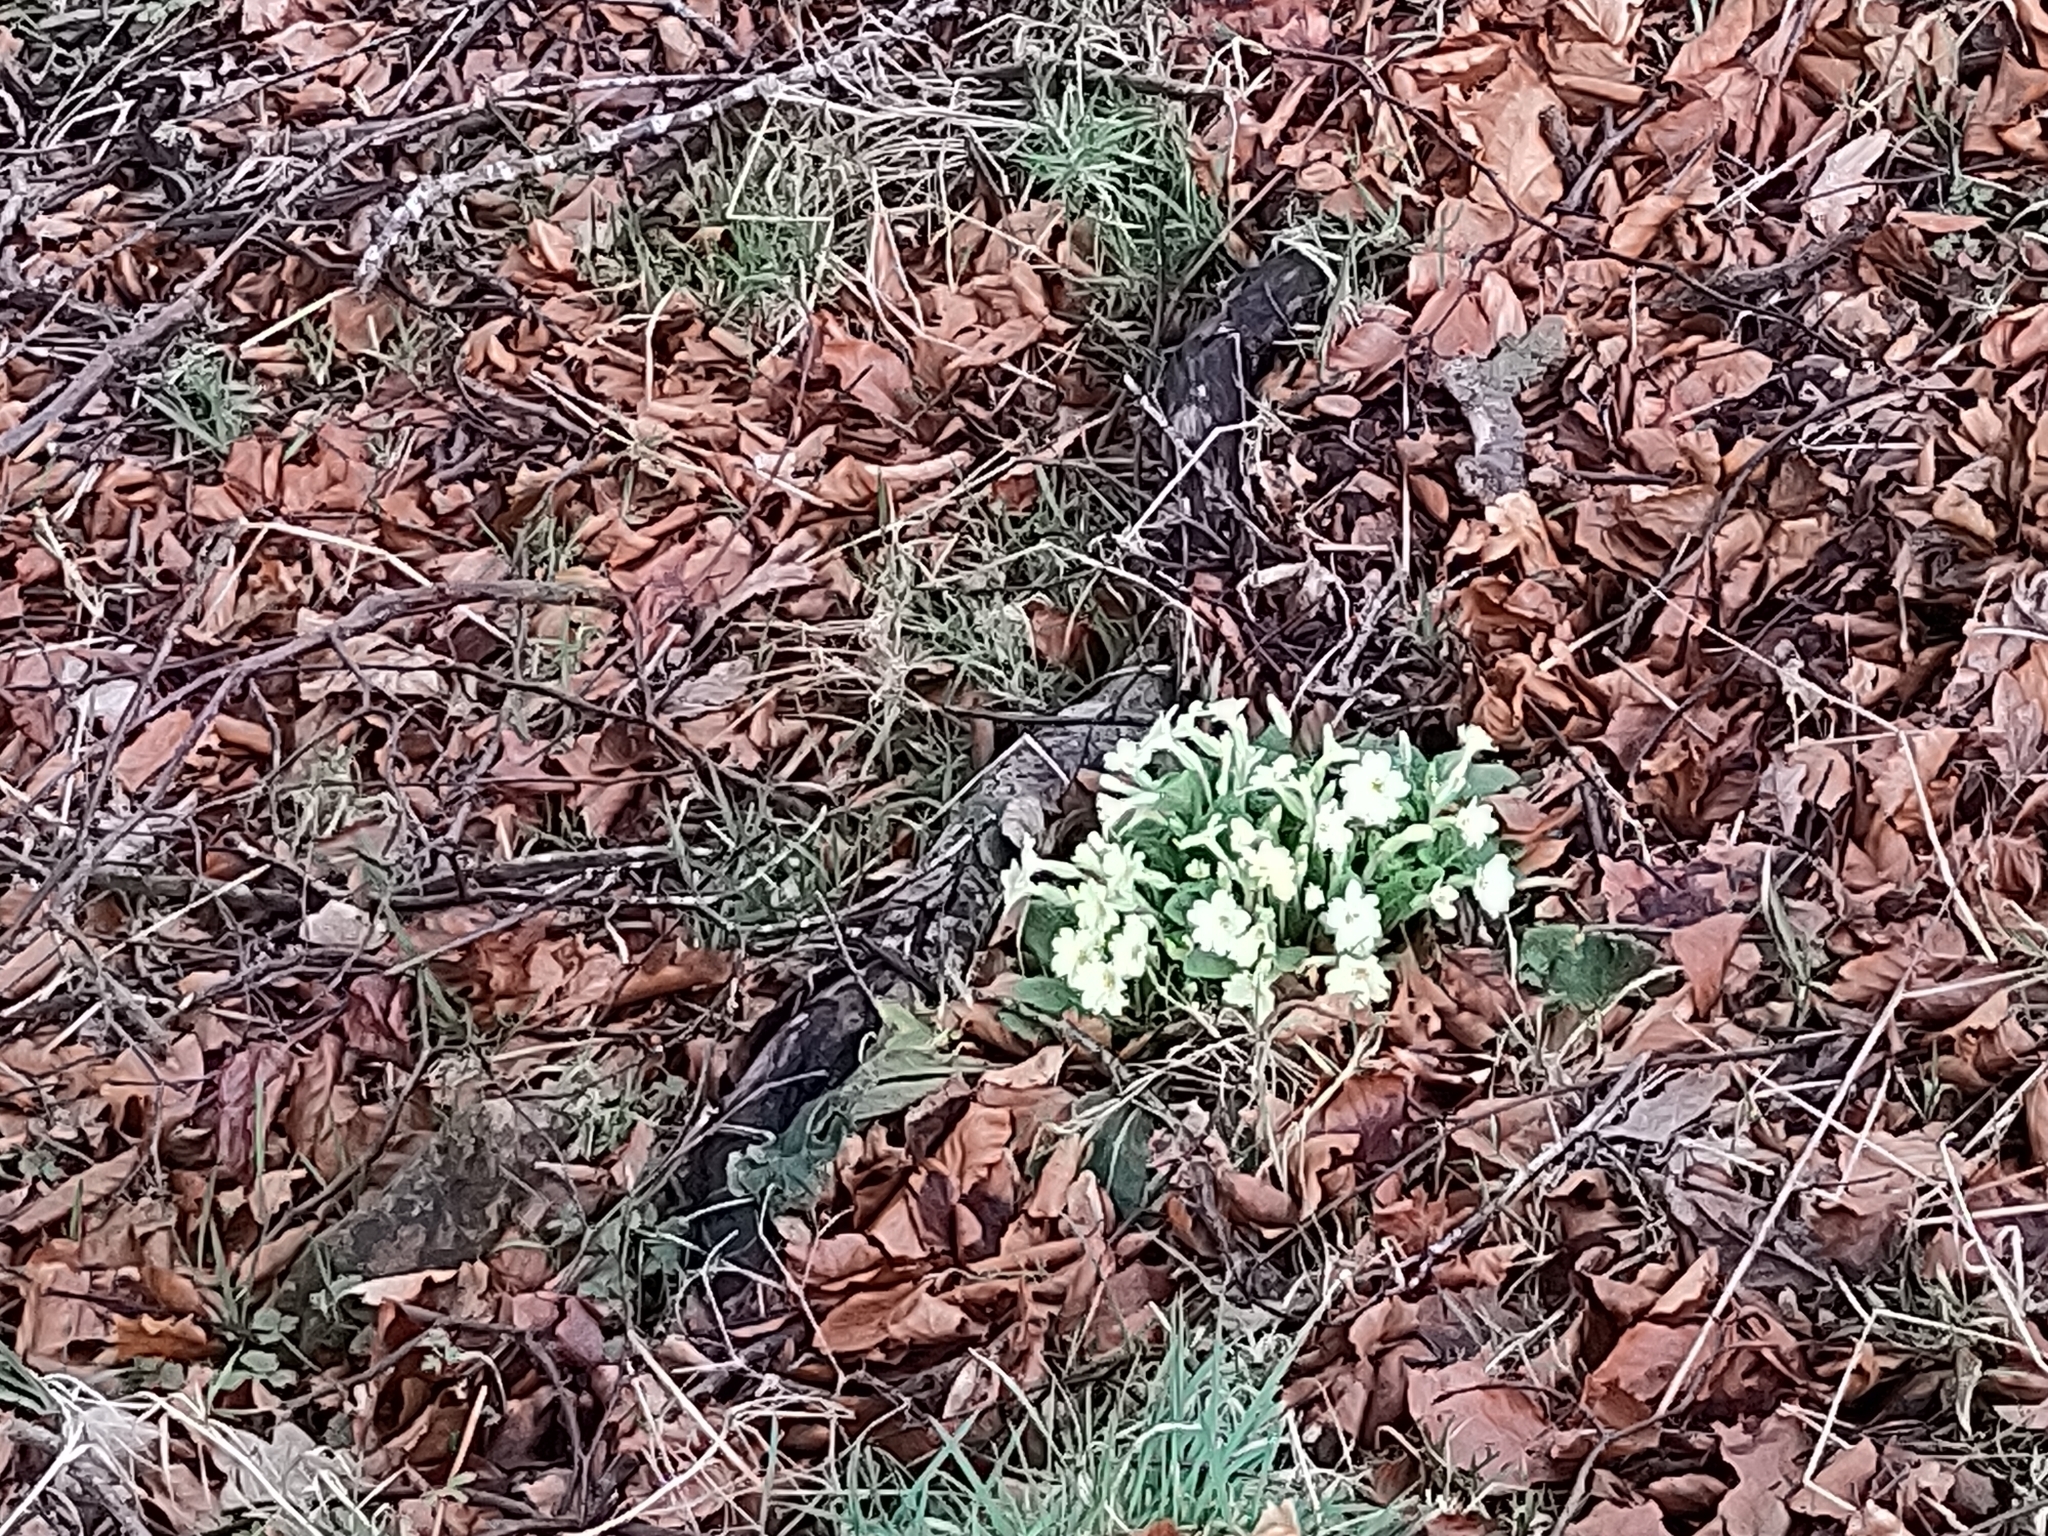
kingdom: Plantae
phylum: Tracheophyta
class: Magnoliopsida
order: Ericales
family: Primulaceae
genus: Primula
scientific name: Primula vulgaris
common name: Primrose
